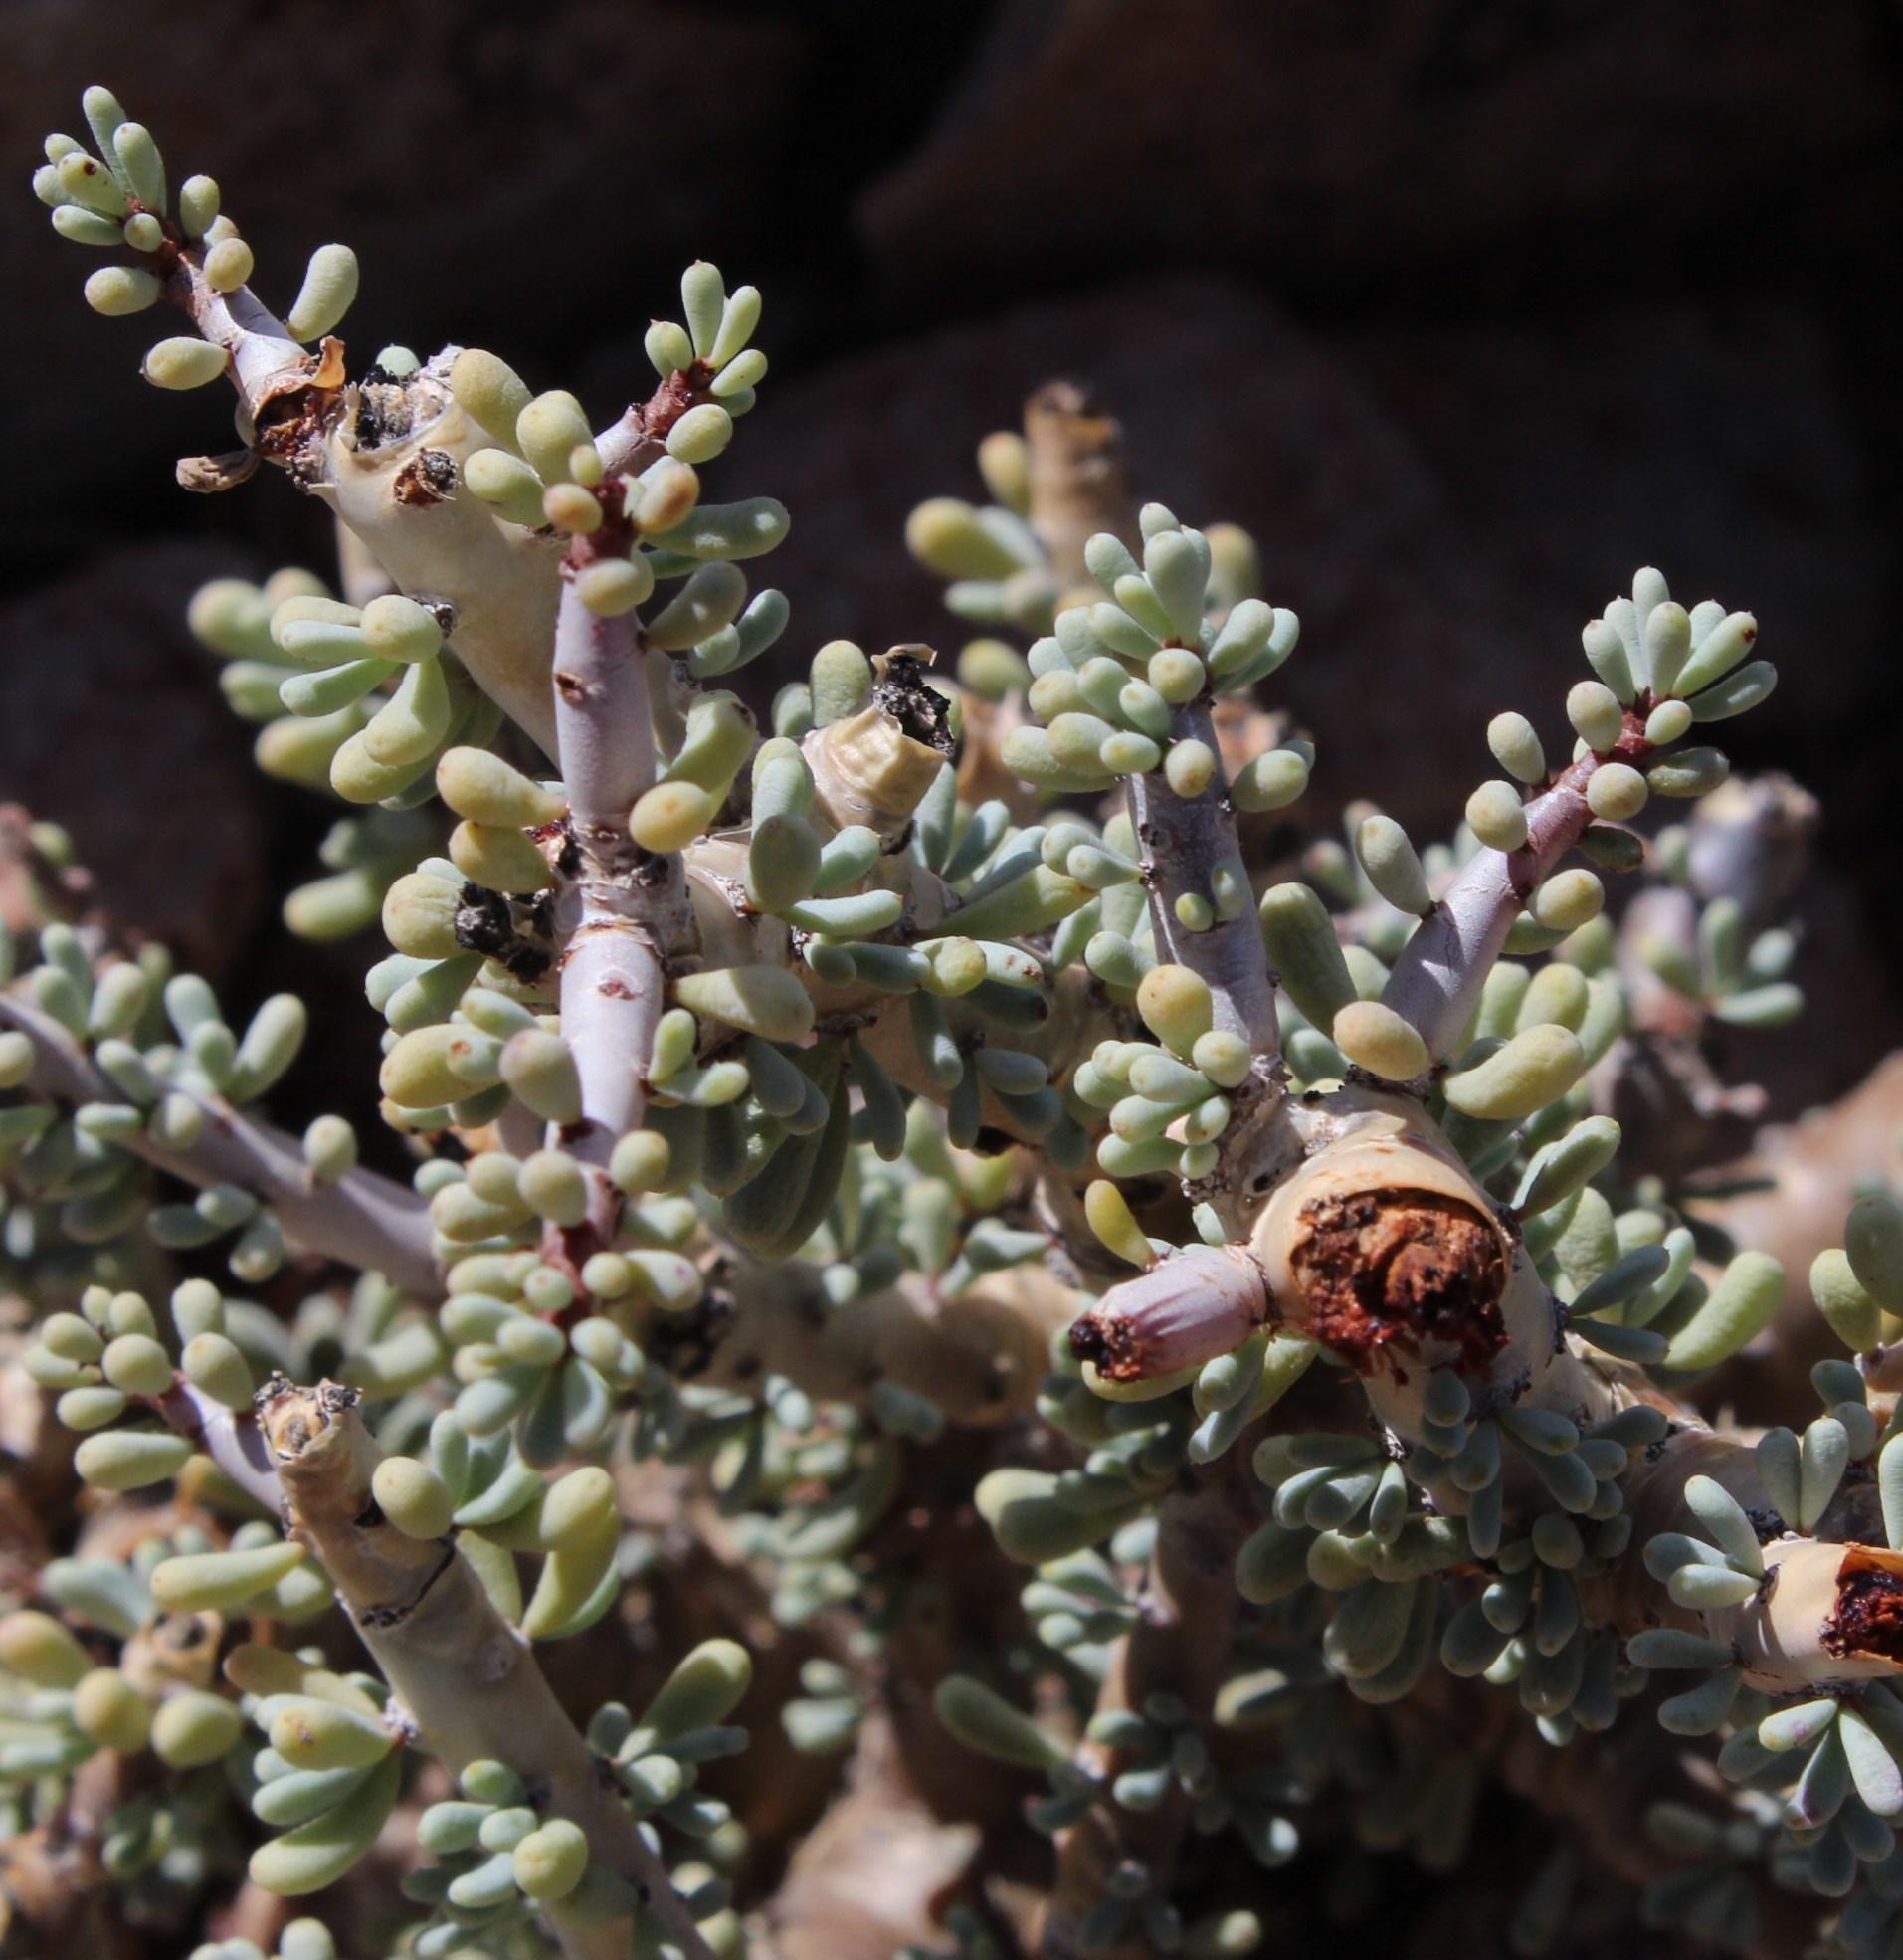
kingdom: Plantae
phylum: Tracheophyta
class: Magnoliopsida
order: Caryophyllales
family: Didiereaceae
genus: Portulacaria
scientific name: Portulacaria namaquensis
